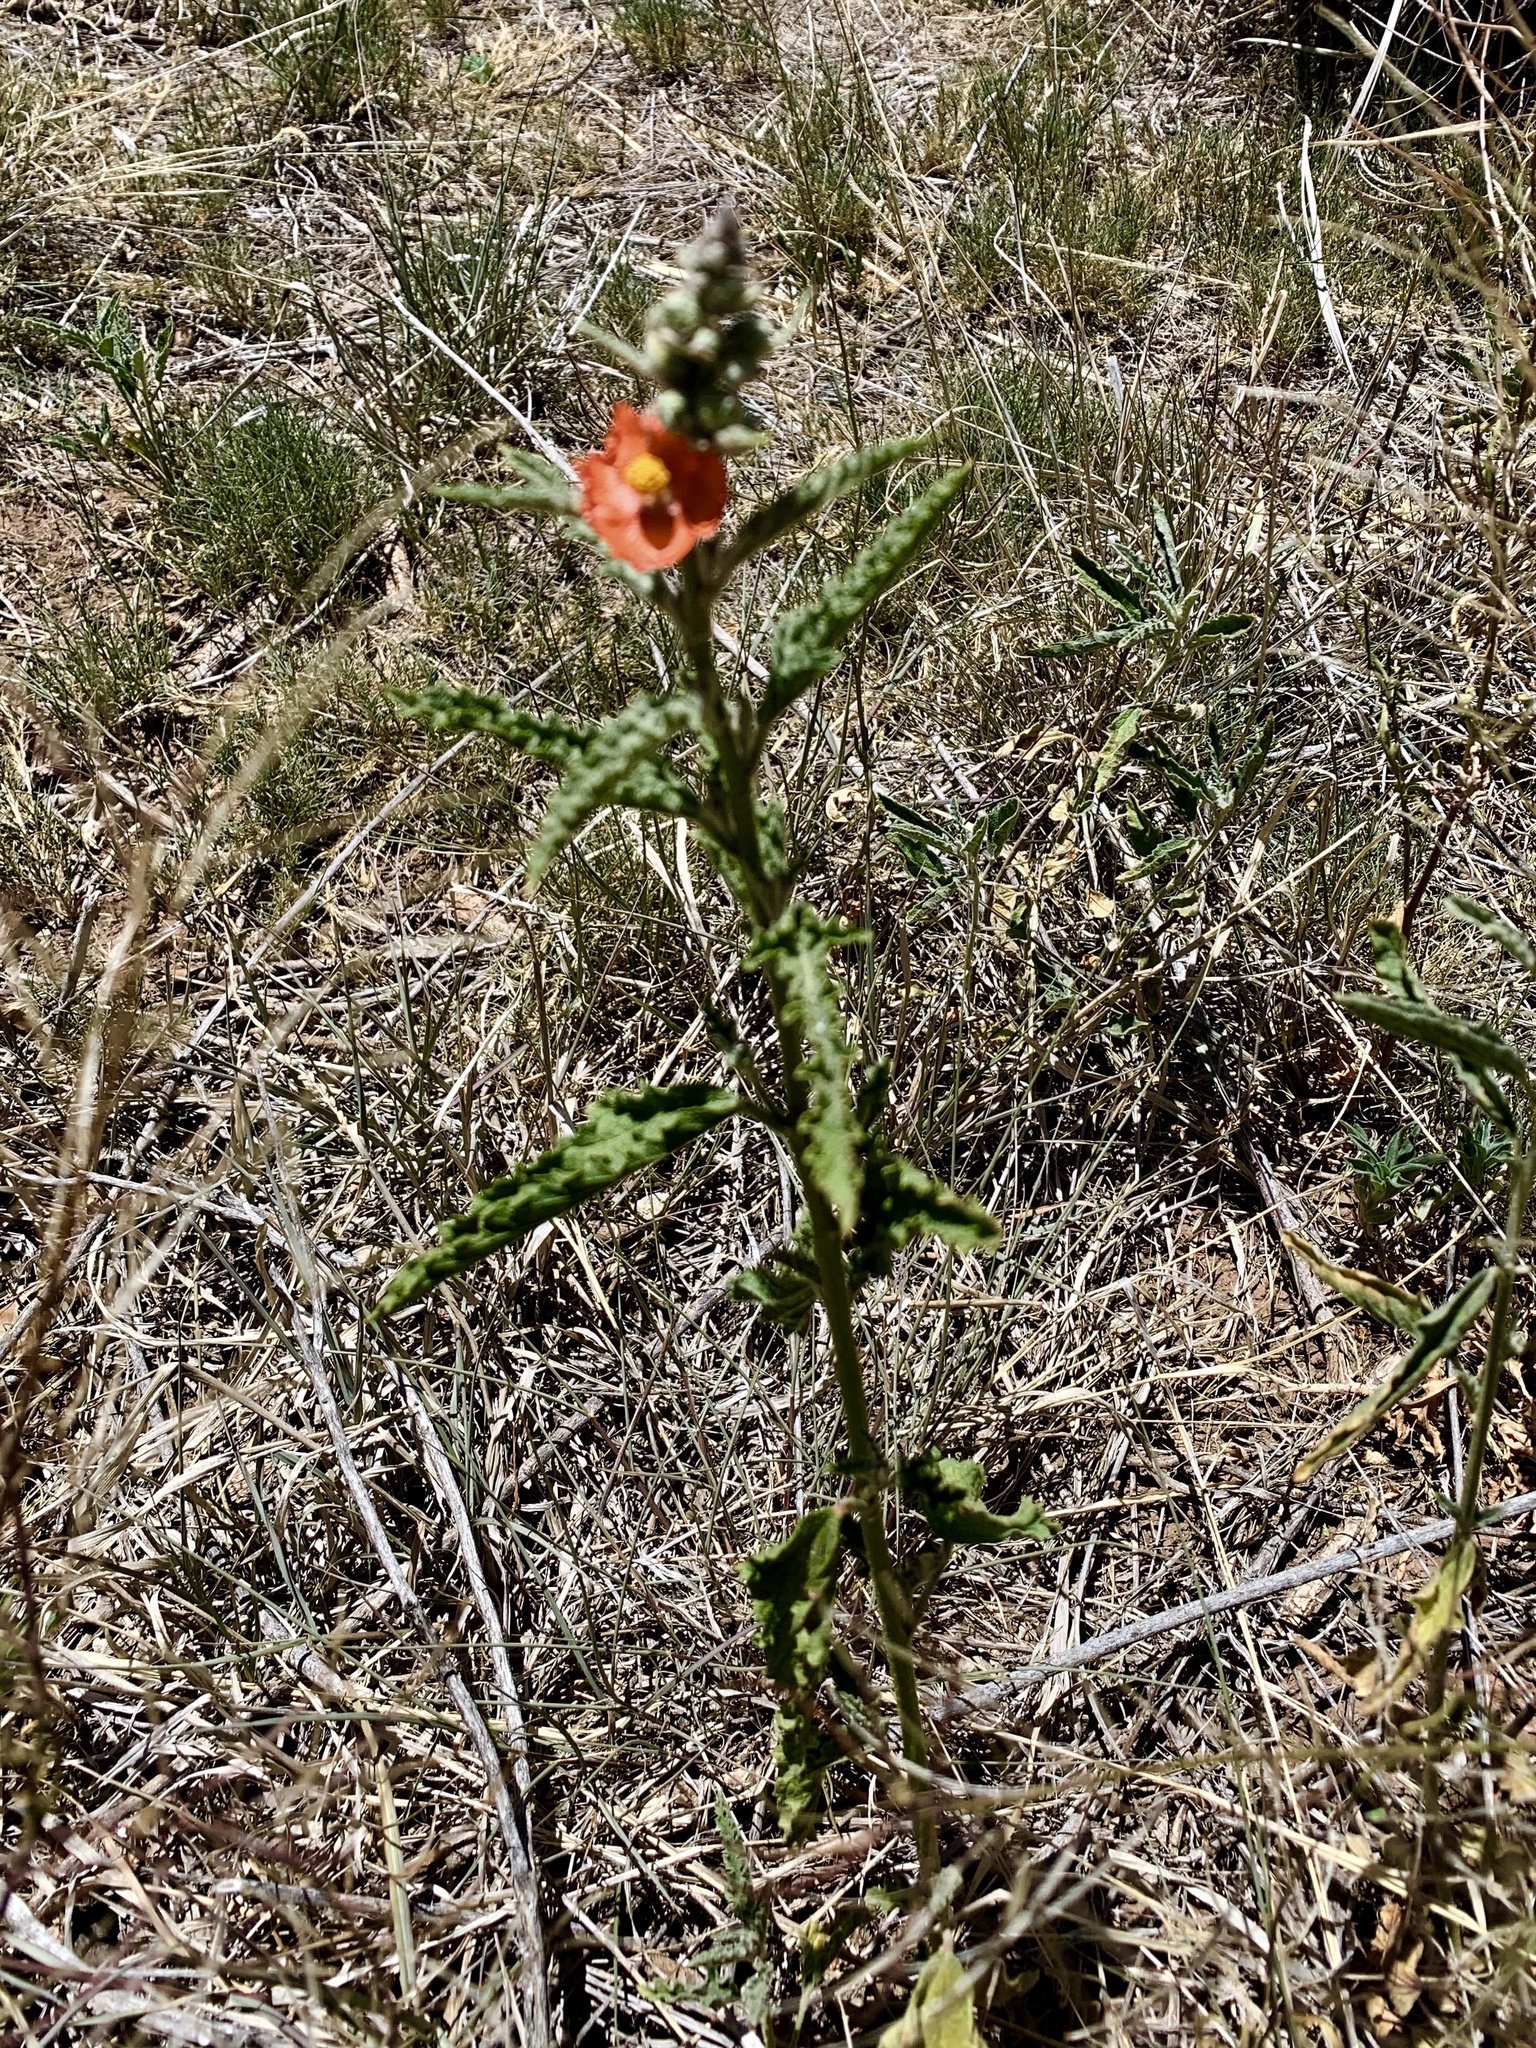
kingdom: Plantae
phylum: Tracheophyta
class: Magnoliopsida
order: Malvales
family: Malvaceae
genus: Sphaeralcea
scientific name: Sphaeralcea hastulata
